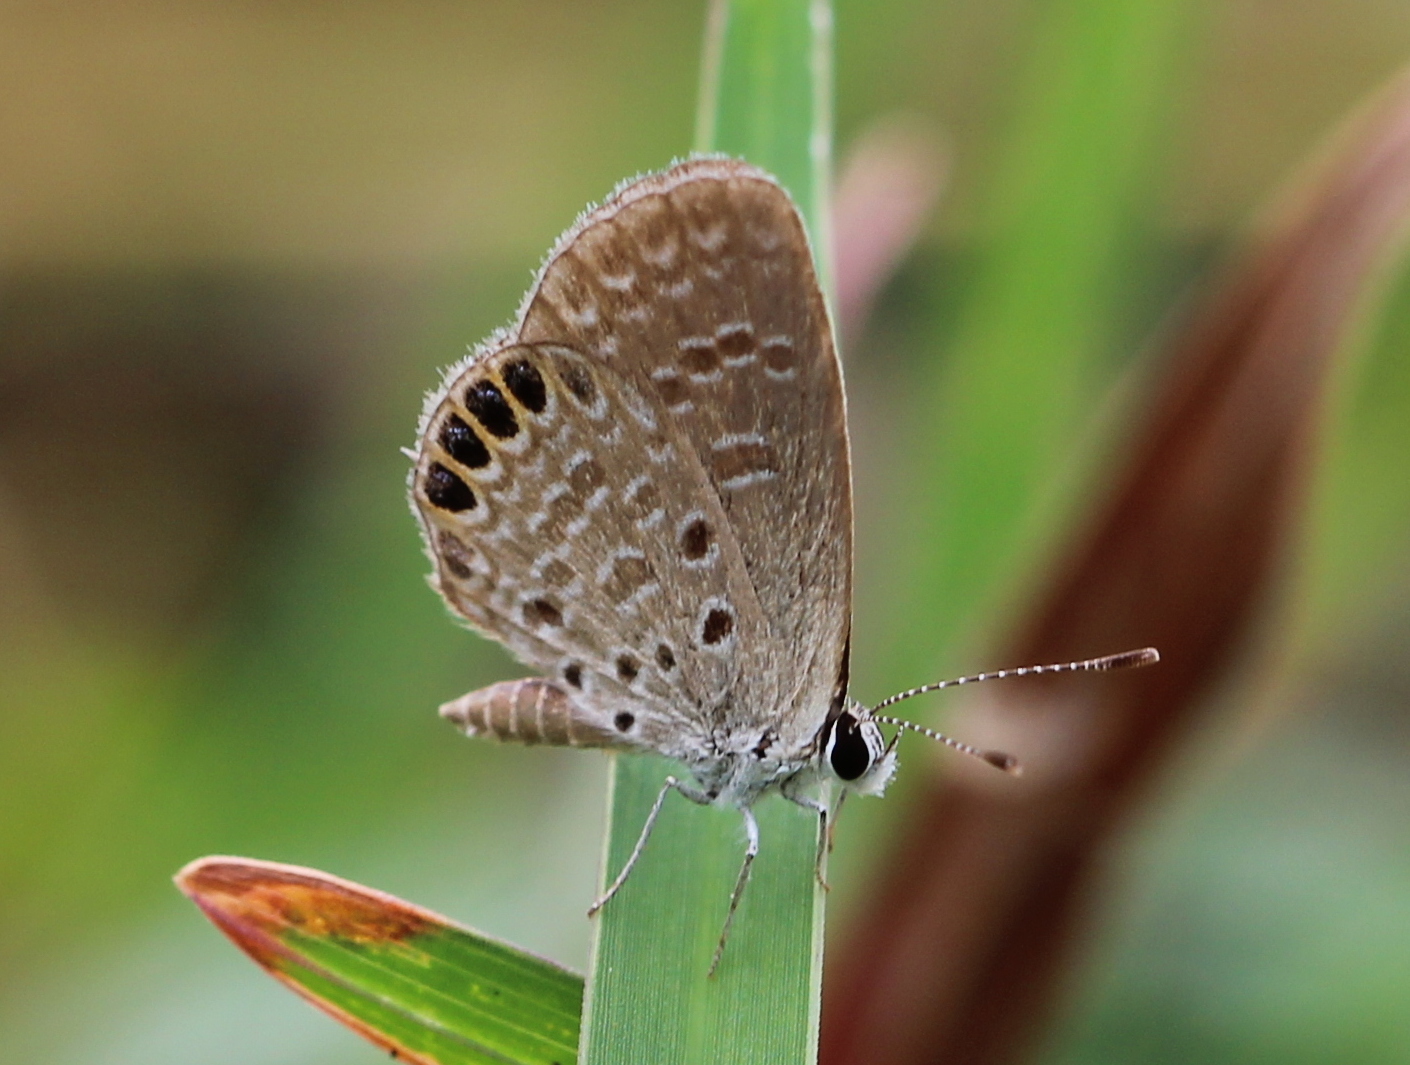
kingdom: Animalia
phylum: Arthropoda
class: Insecta
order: Lepidoptera
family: Lycaenidae
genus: Freyeria
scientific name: Freyeria putli
